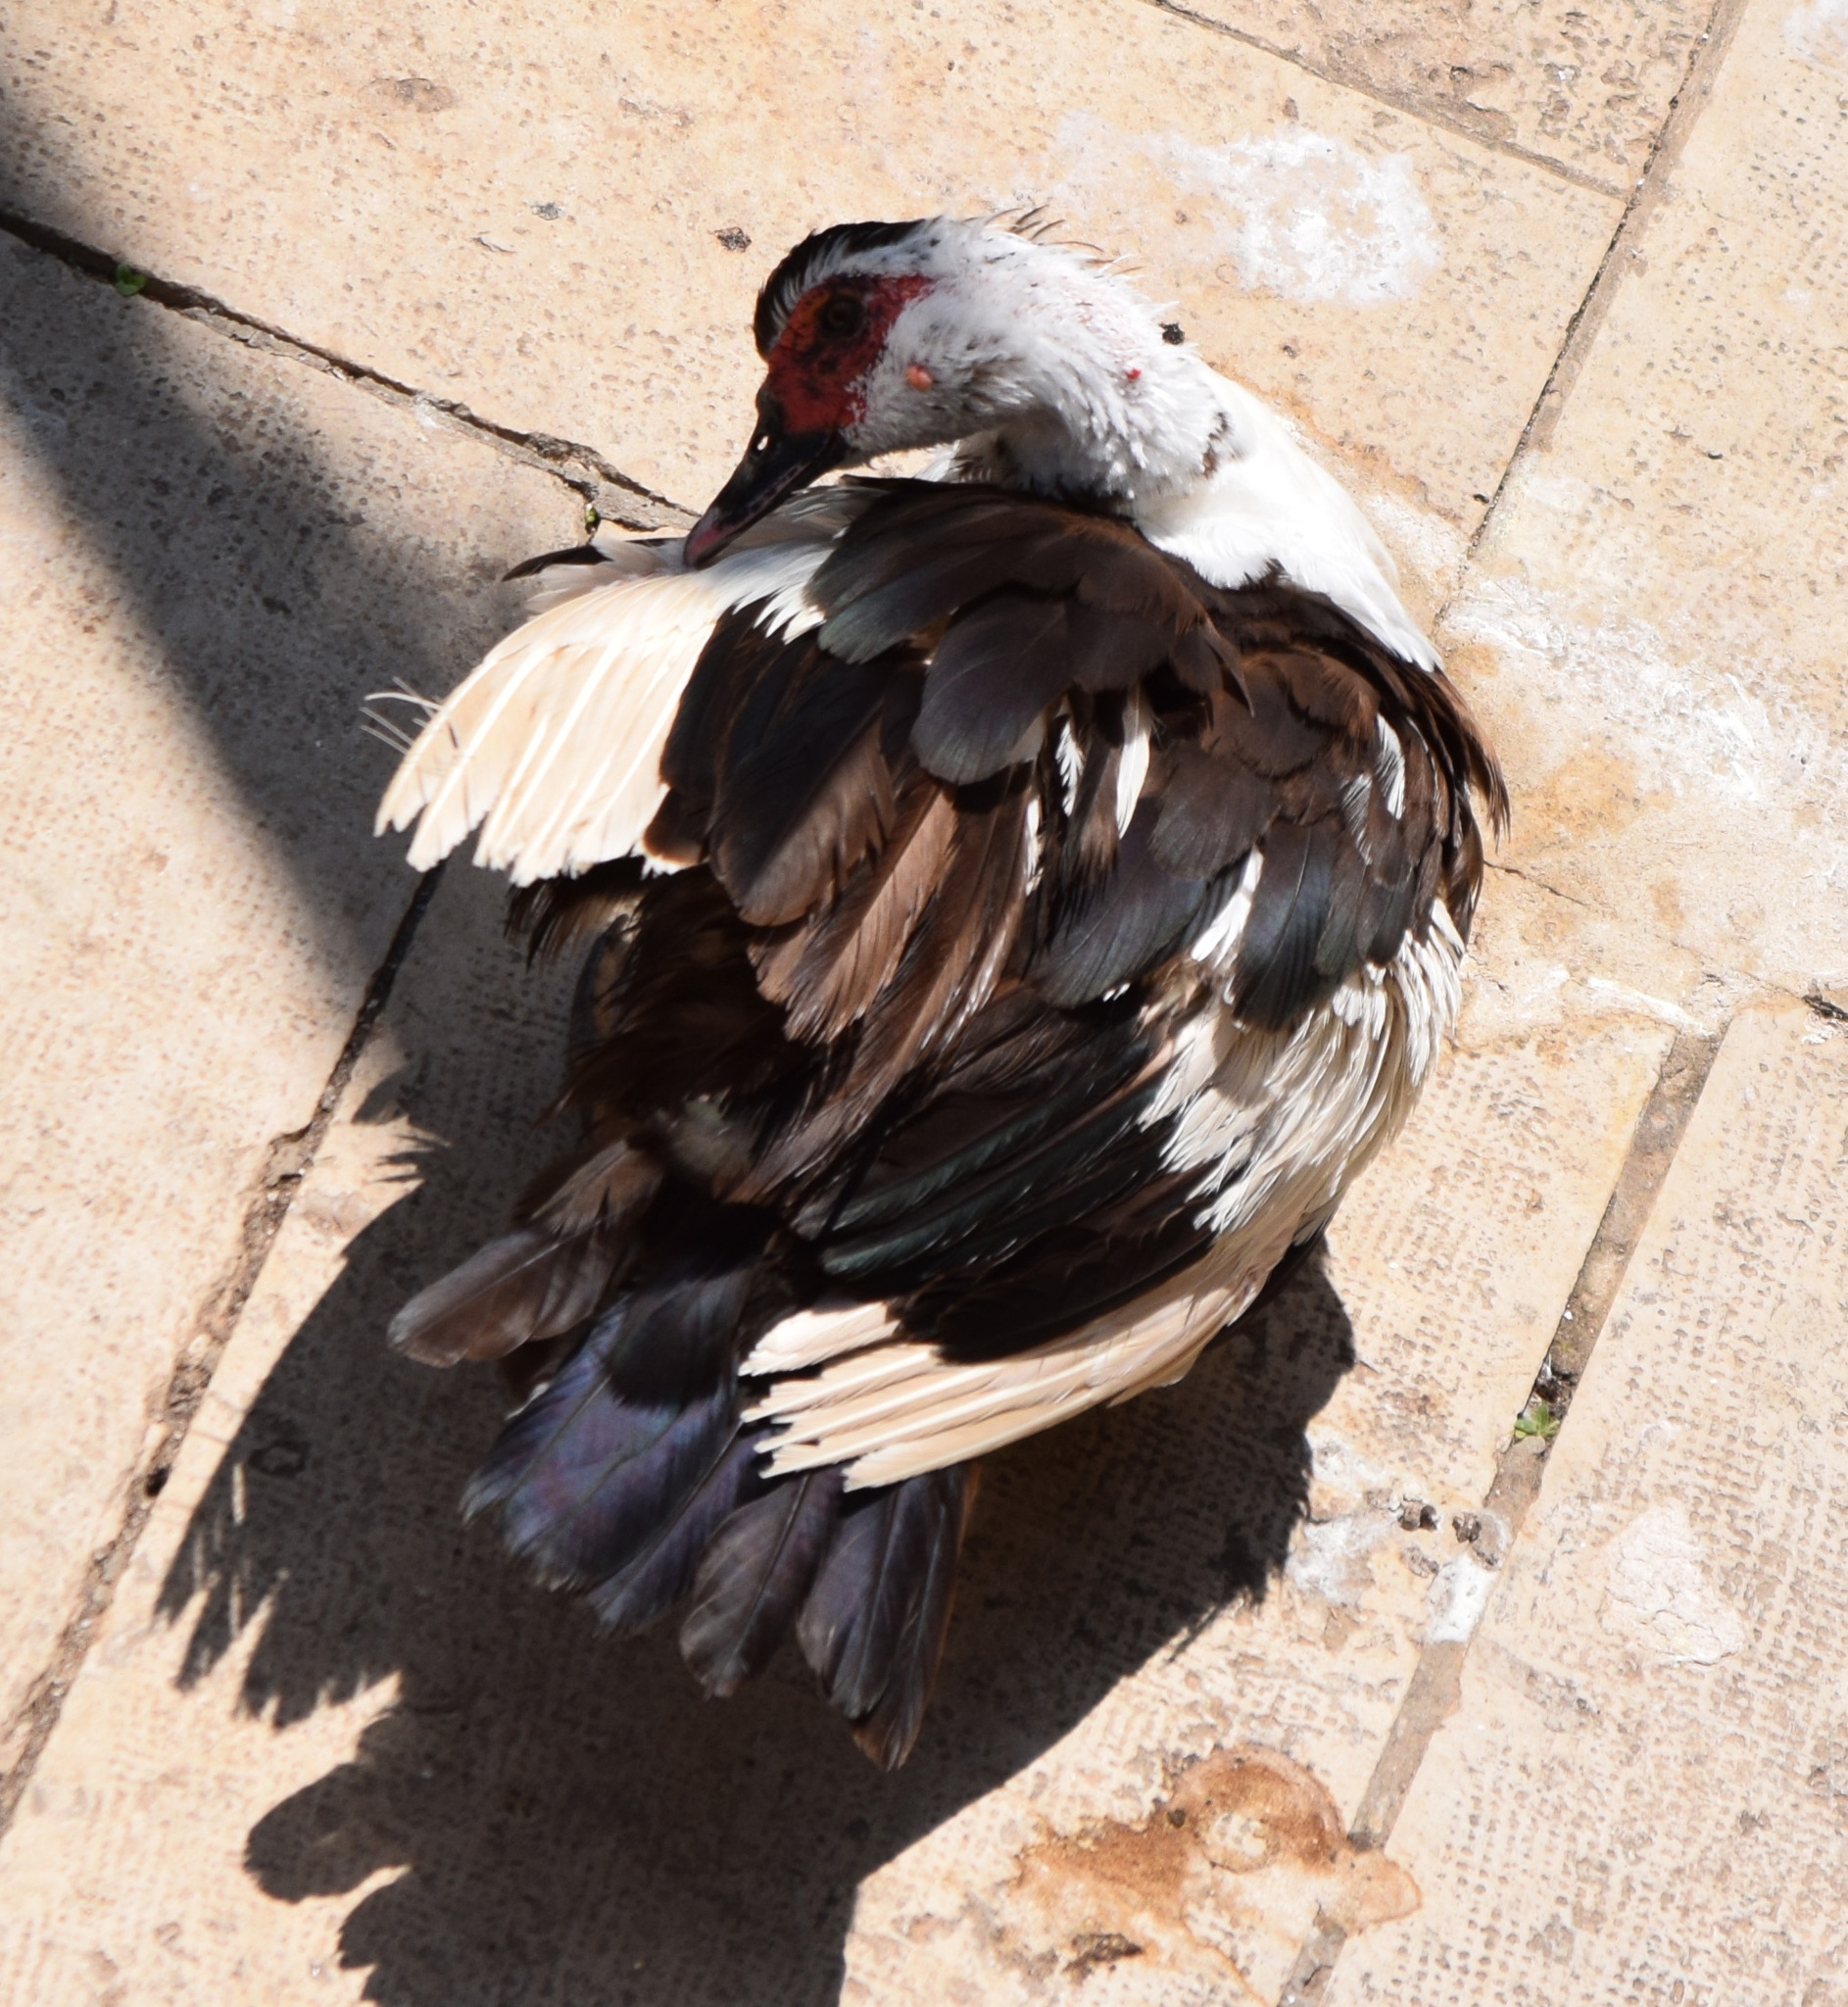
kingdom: Animalia
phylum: Chordata
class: Aves
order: Anseriformes
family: Anatidae
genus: Cairina
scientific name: Cairina moschata
